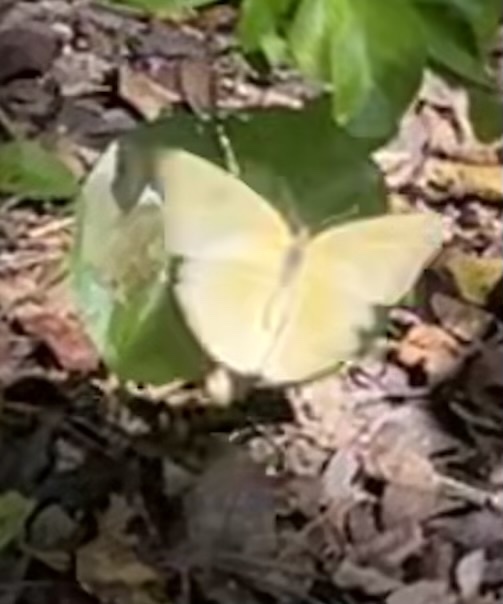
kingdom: Animalia
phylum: Arthropoda
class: Insecta
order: Lepidoptera
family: Pieridae
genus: Phoebis
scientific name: Phoebis agarithe
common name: Large orange sulphur
